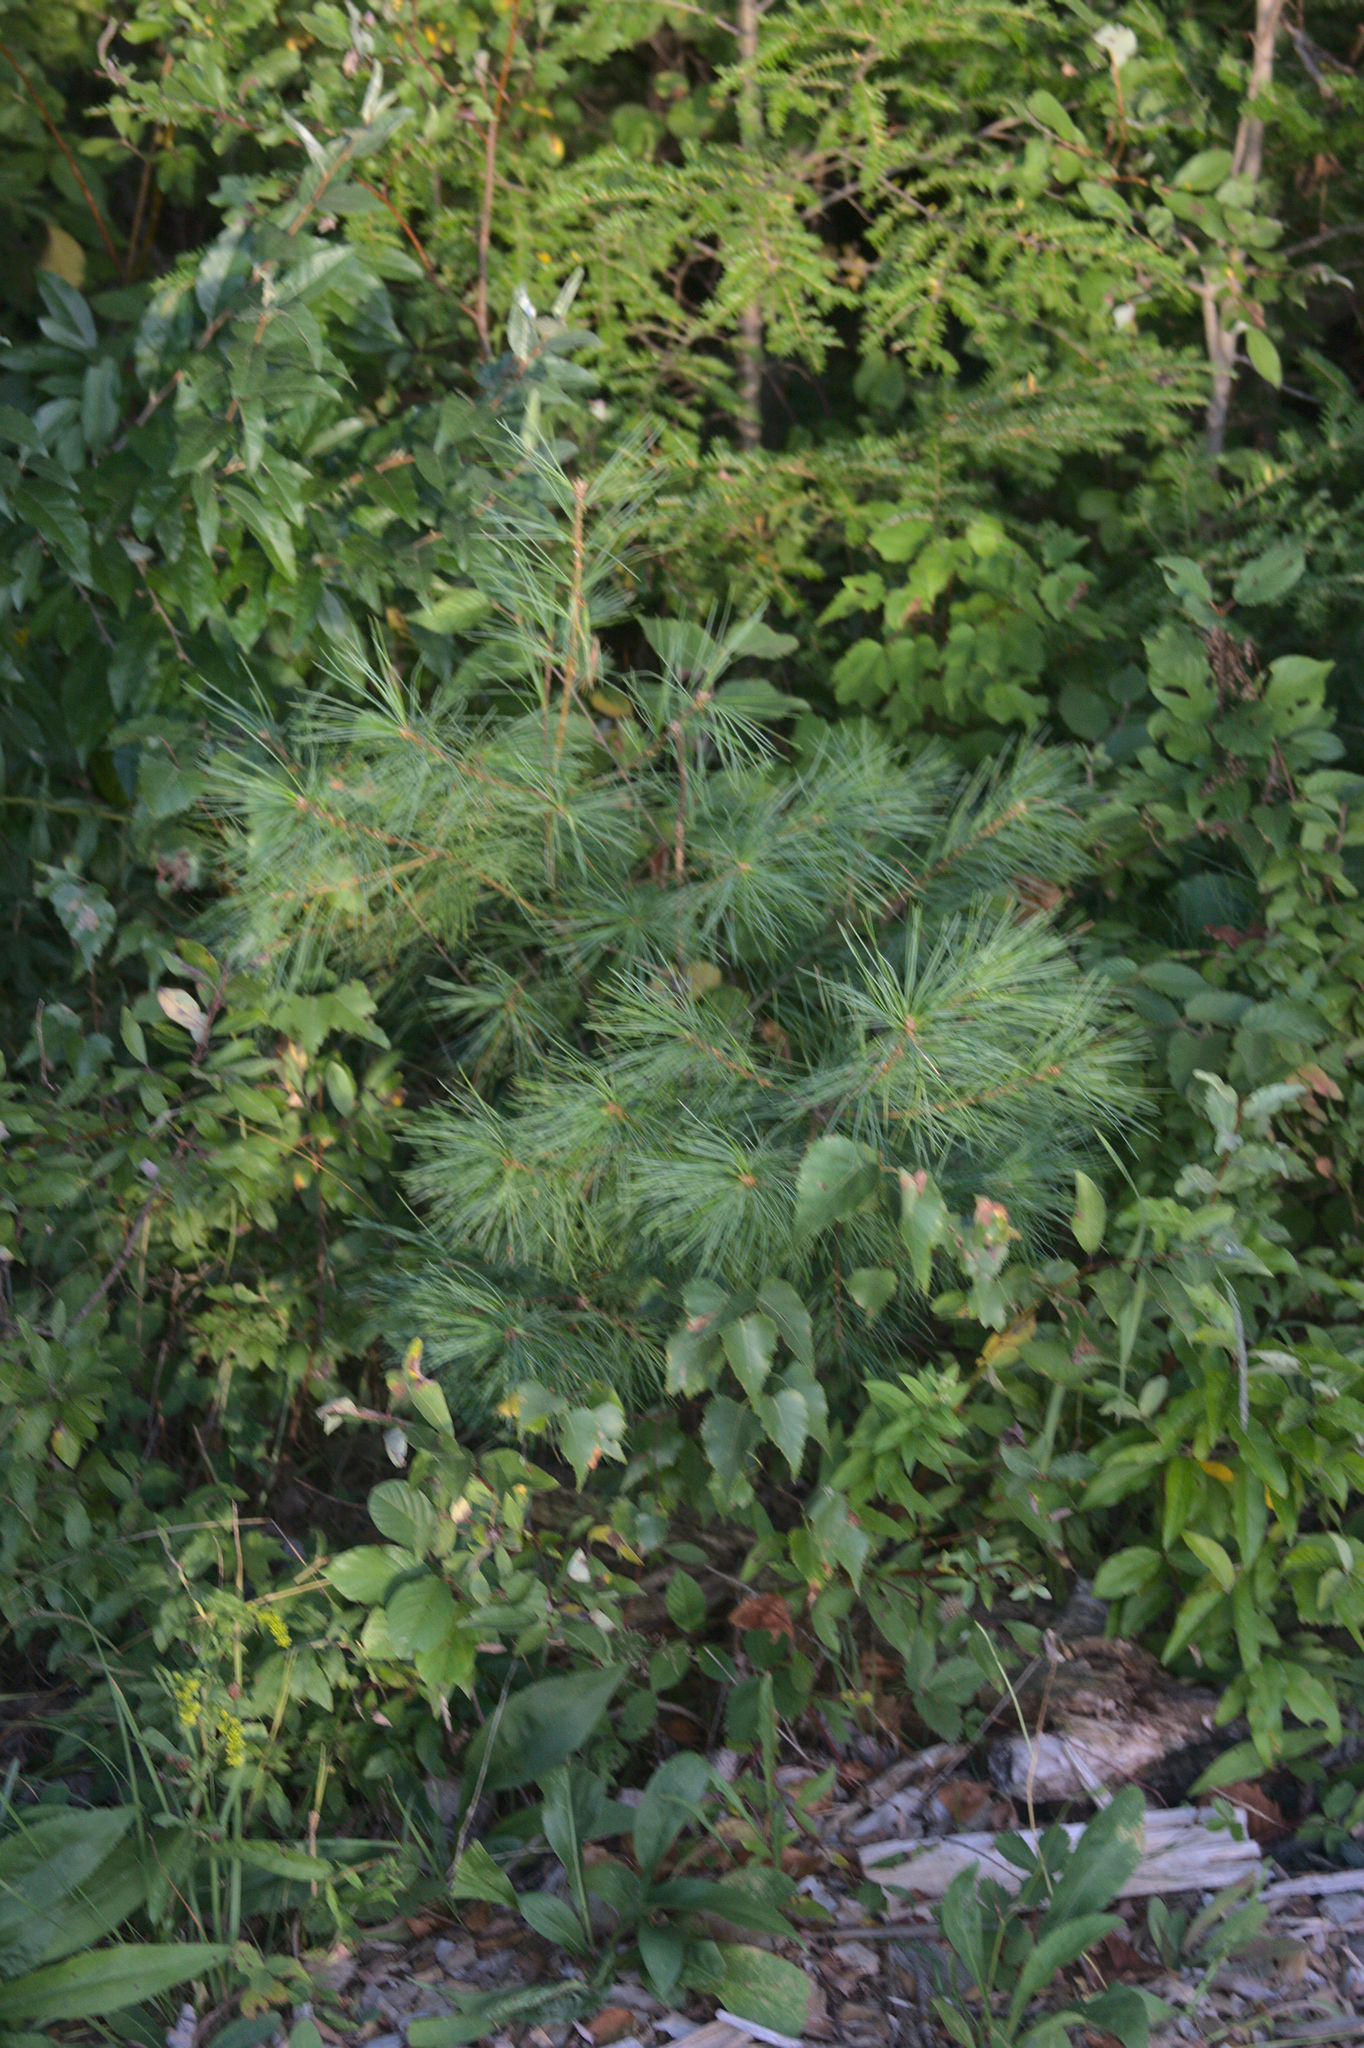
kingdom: Plantae
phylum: Tracheophyta
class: Pinopsida
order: Pinales
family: Pinaceae
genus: Pinus
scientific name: Pinus strobus
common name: Weymouth pine
